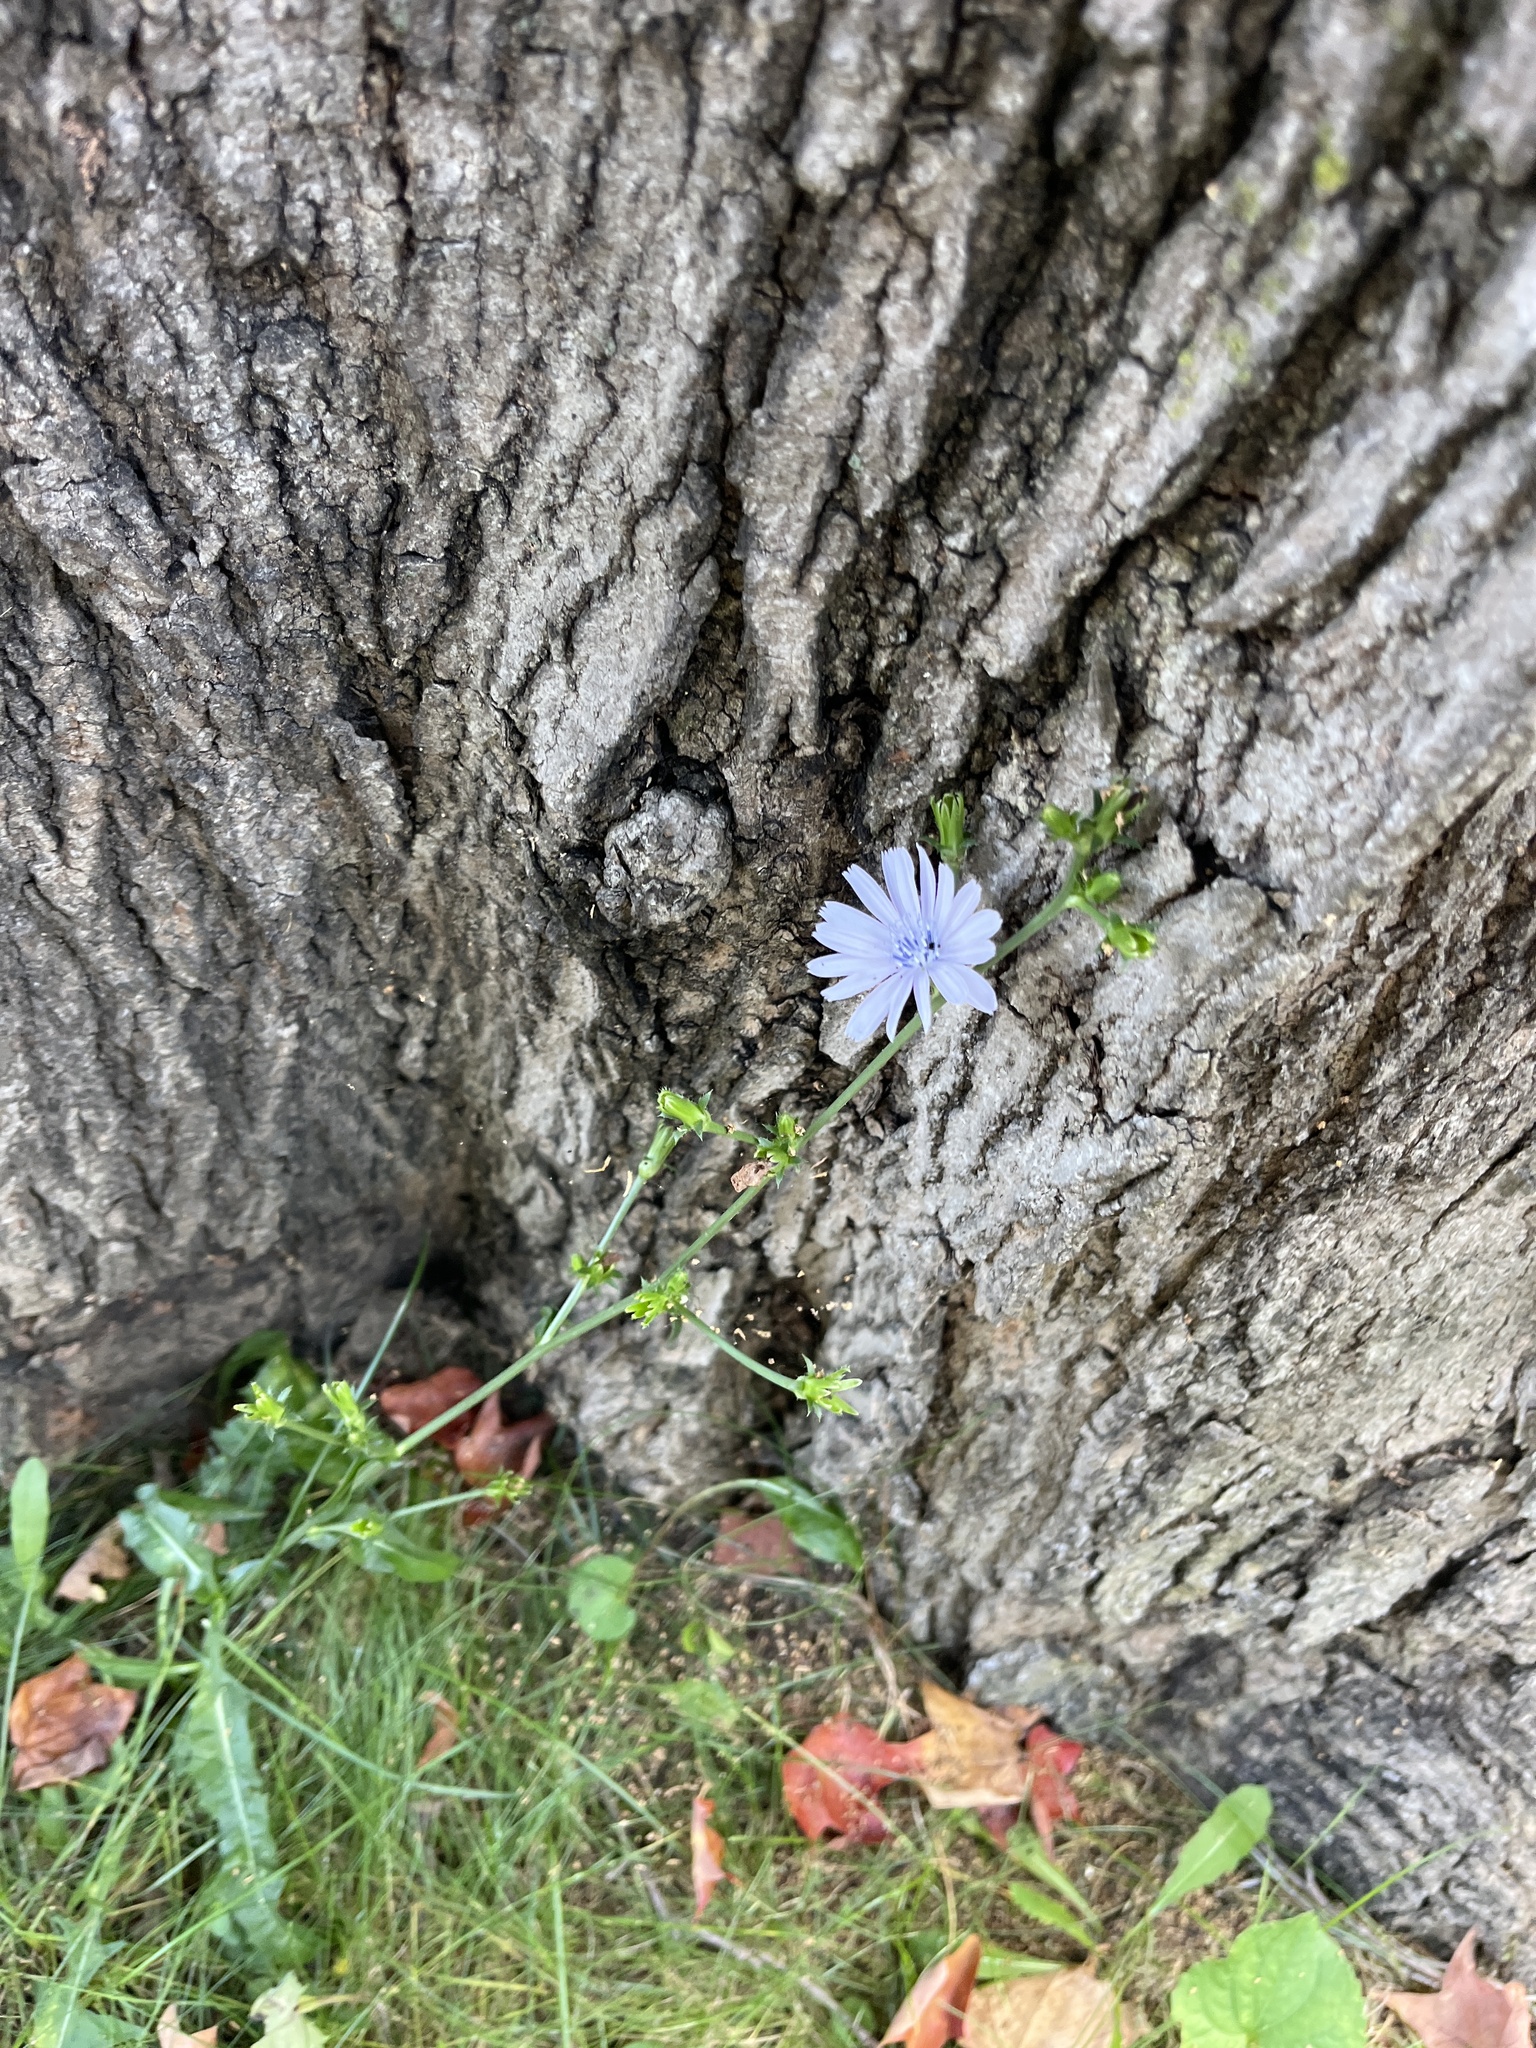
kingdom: Plantae
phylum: Tracheophyta
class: Magnoliopsida
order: Asterales
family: Asteraceae
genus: Cichorium
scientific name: Cichorium intybus
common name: Chicory
